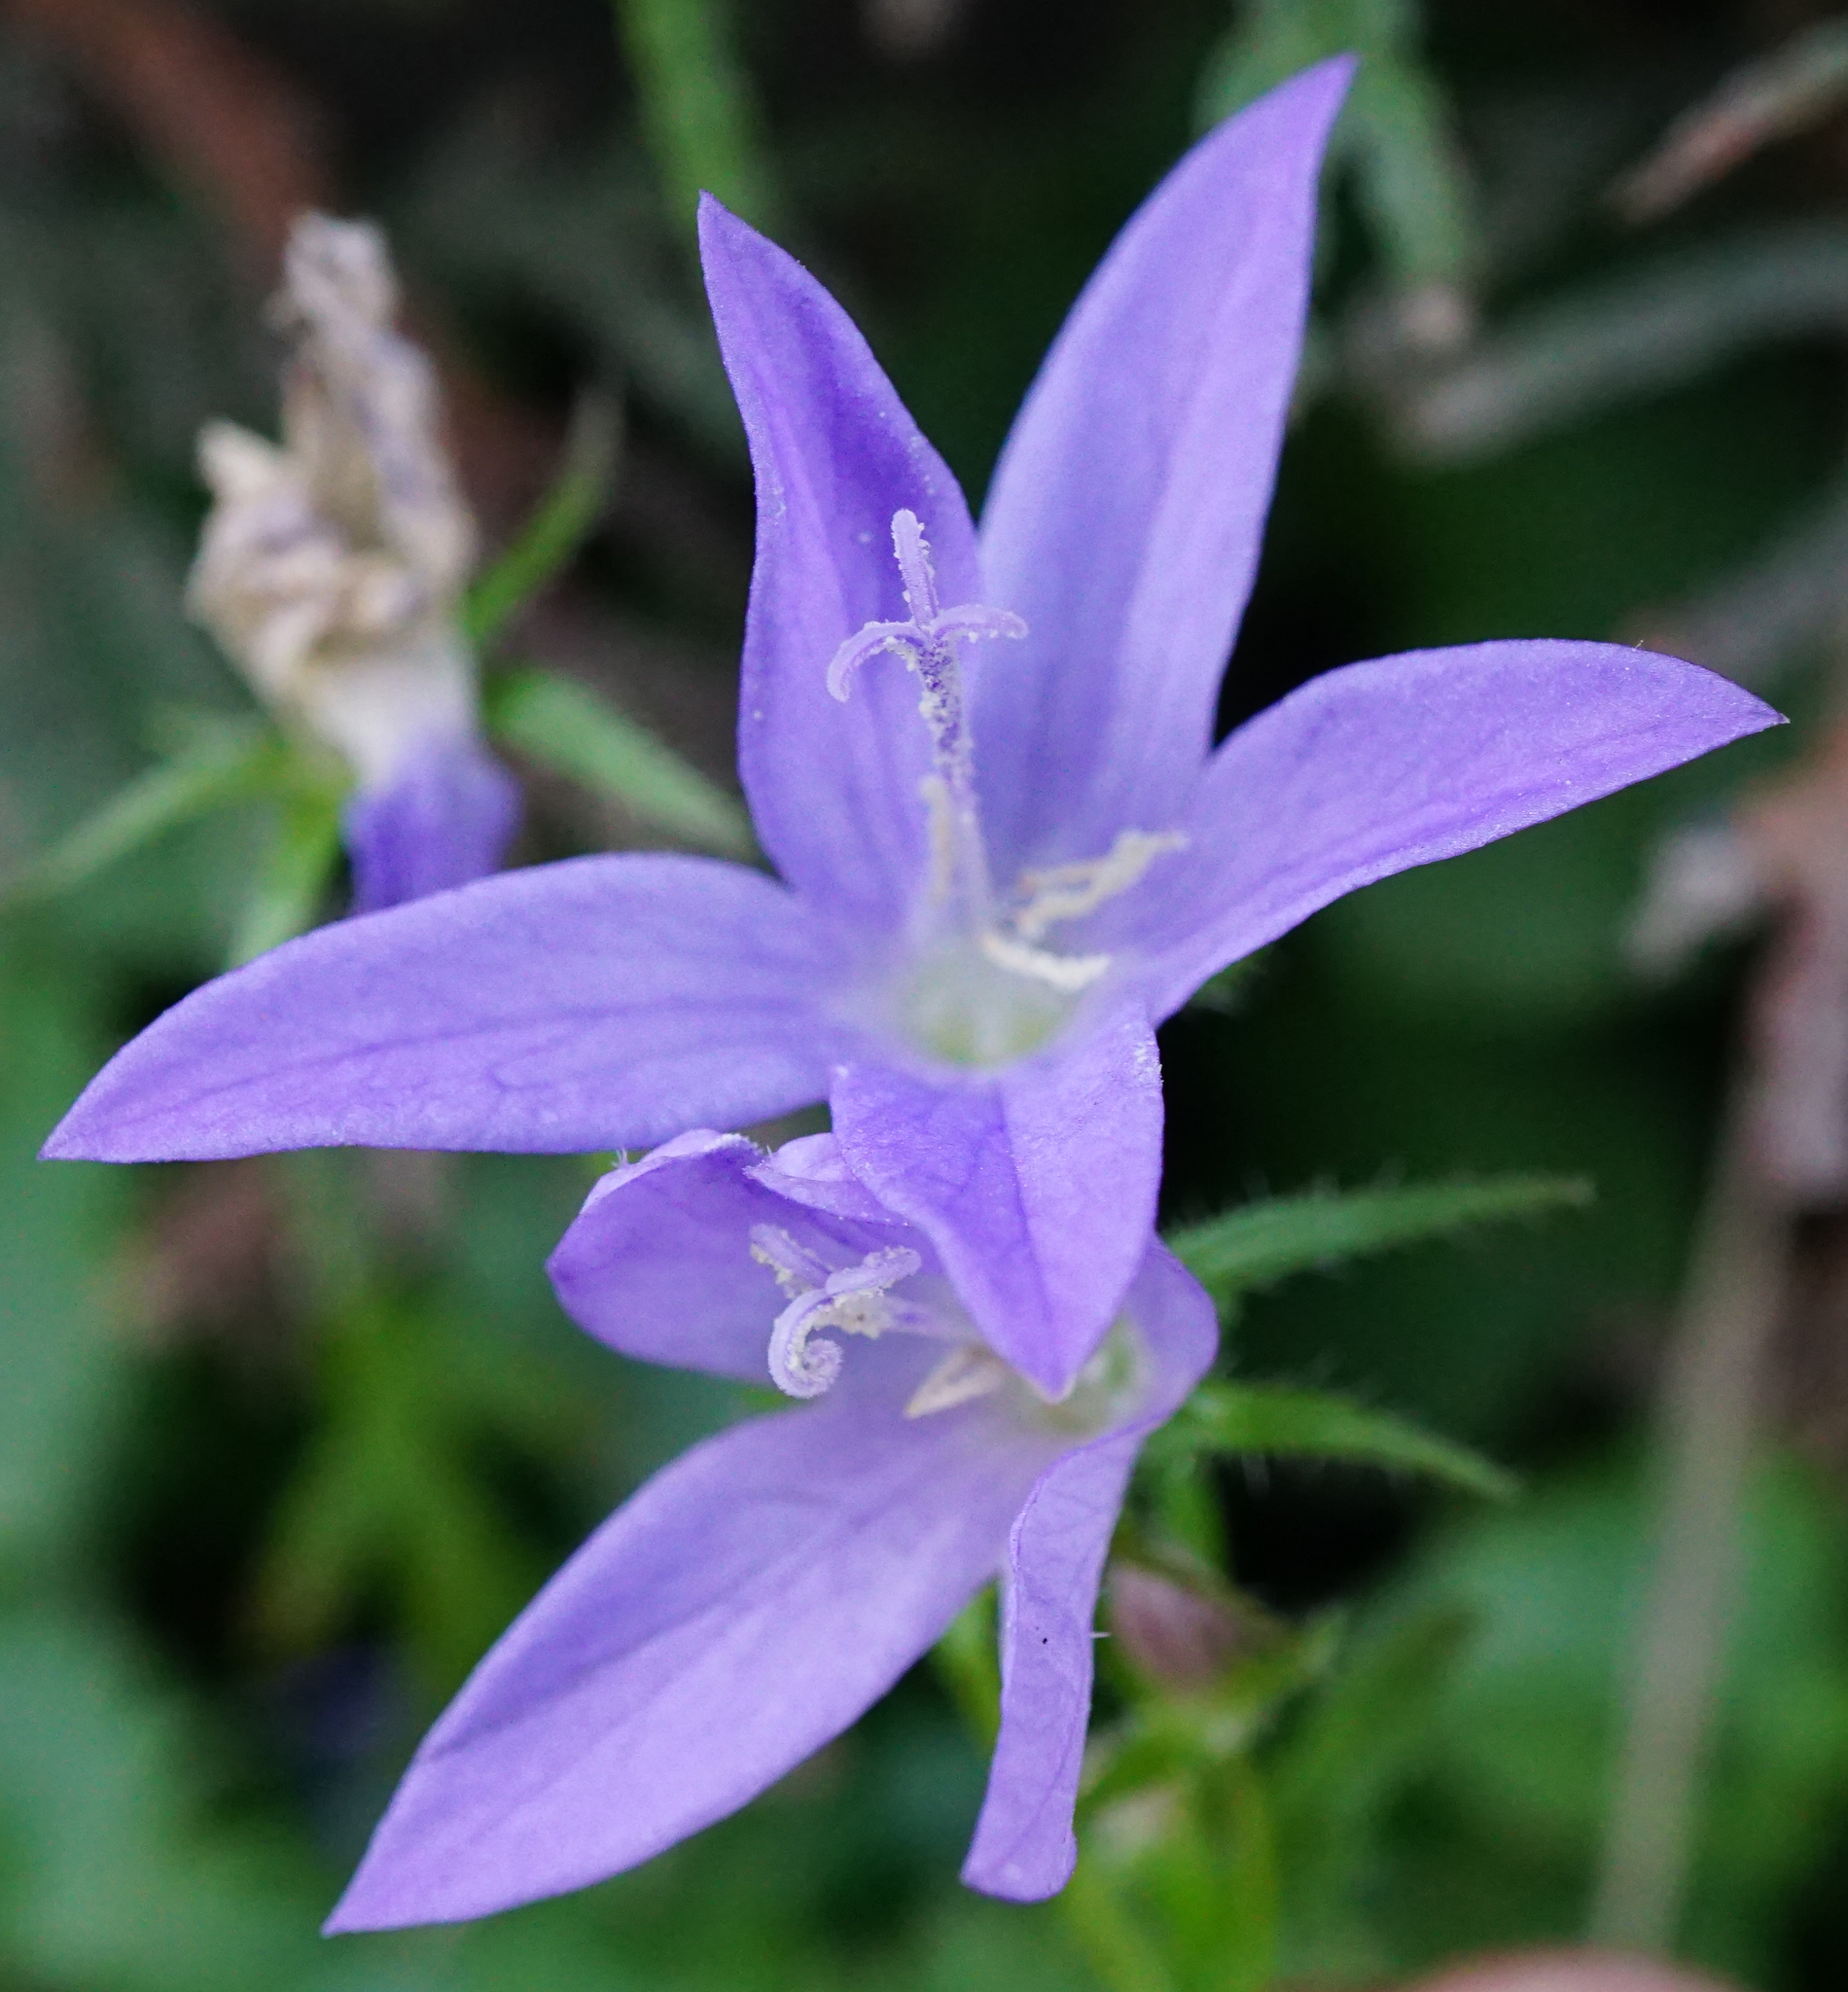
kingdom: Plantae
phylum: Tracheophyta
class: Magnoliopsida
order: Asterales
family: Campanulaceae
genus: Campanula
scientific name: Campanula poscharskyana
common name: Trailing bellflower
